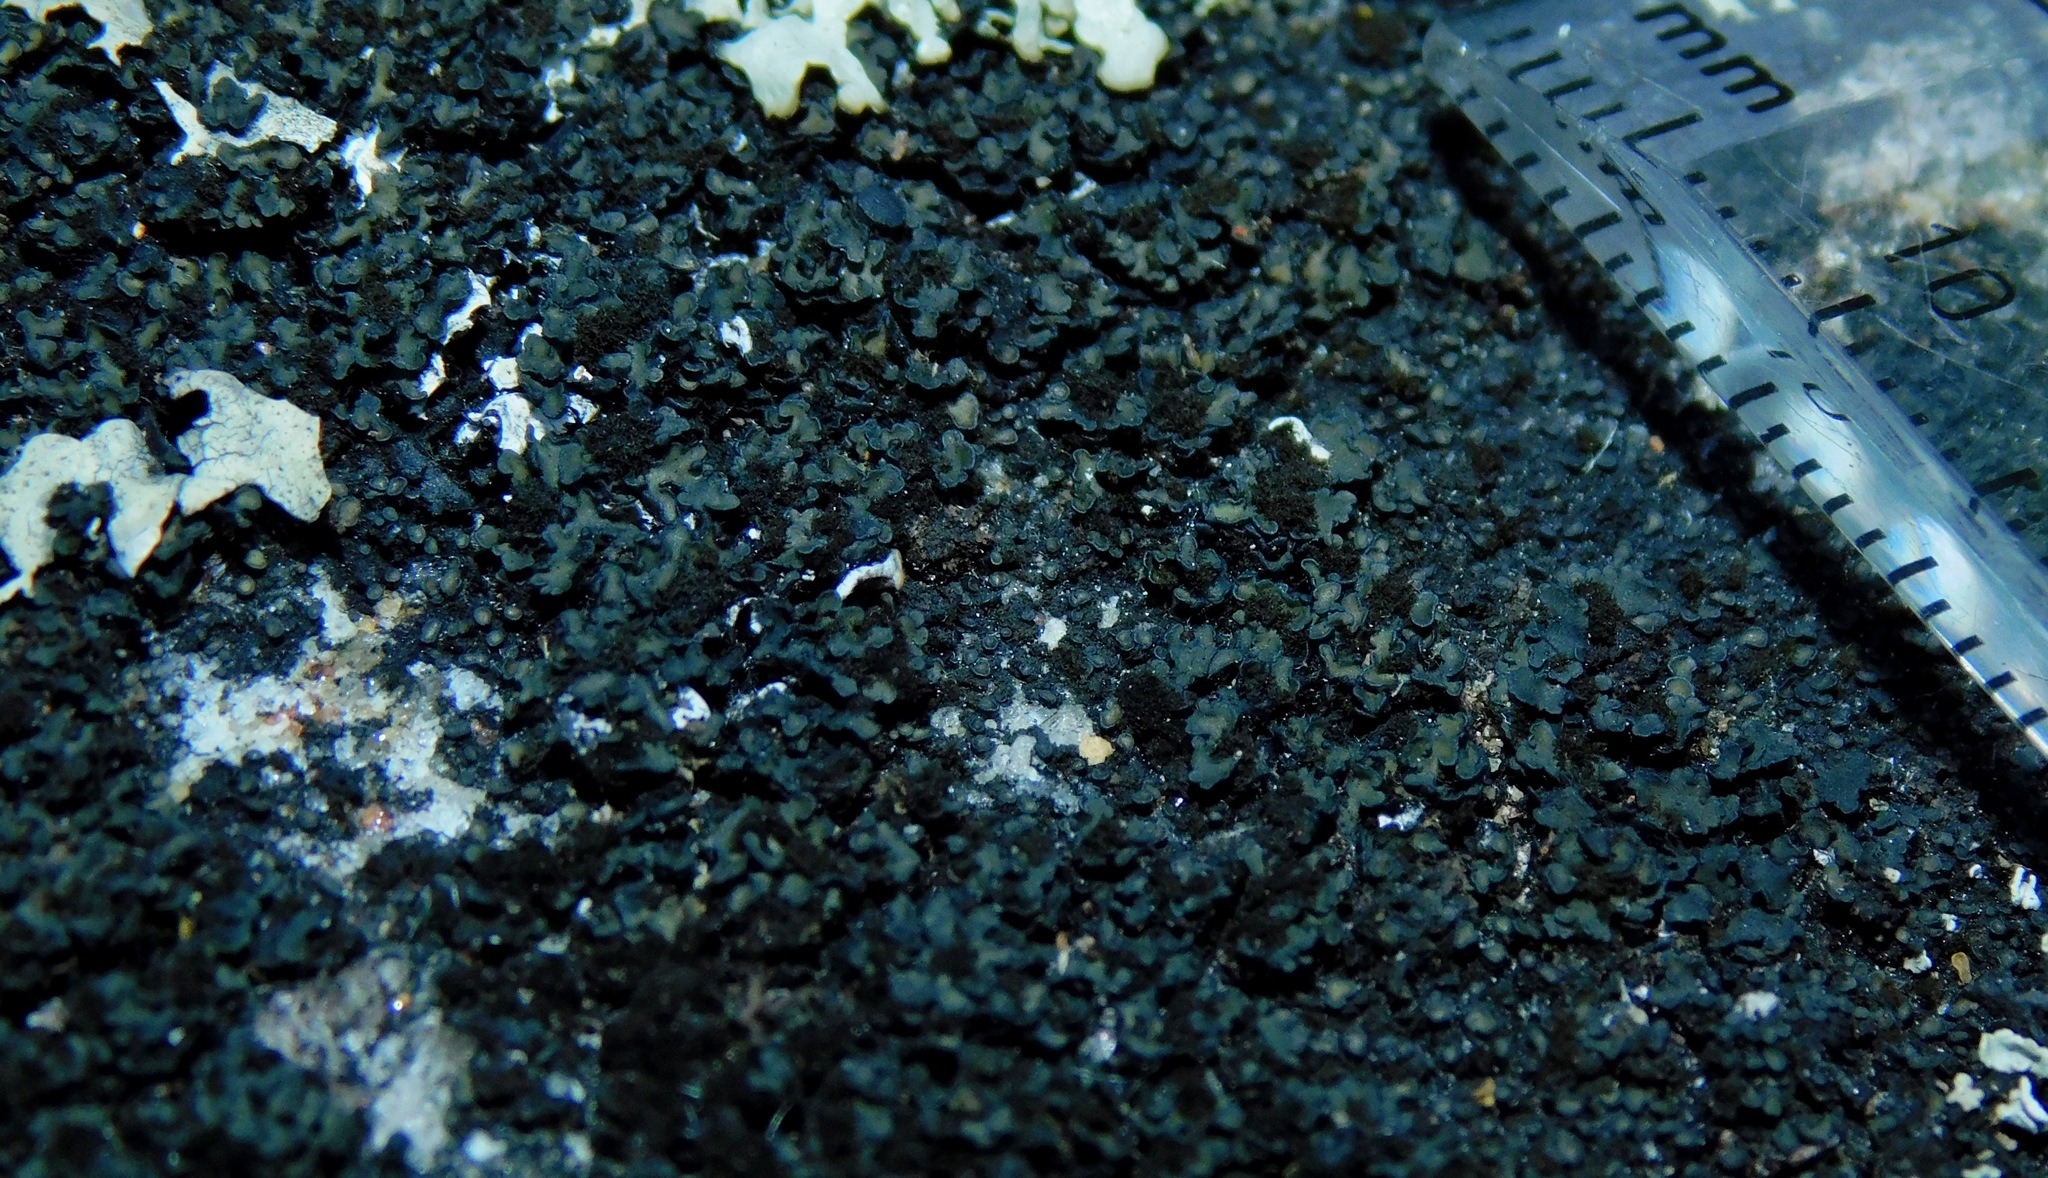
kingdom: Fungi
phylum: Ascomycota
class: Lecanoromycetes
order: Lecanorales
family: Psoraceae
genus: Psorula
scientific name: Psorula rufonigra
